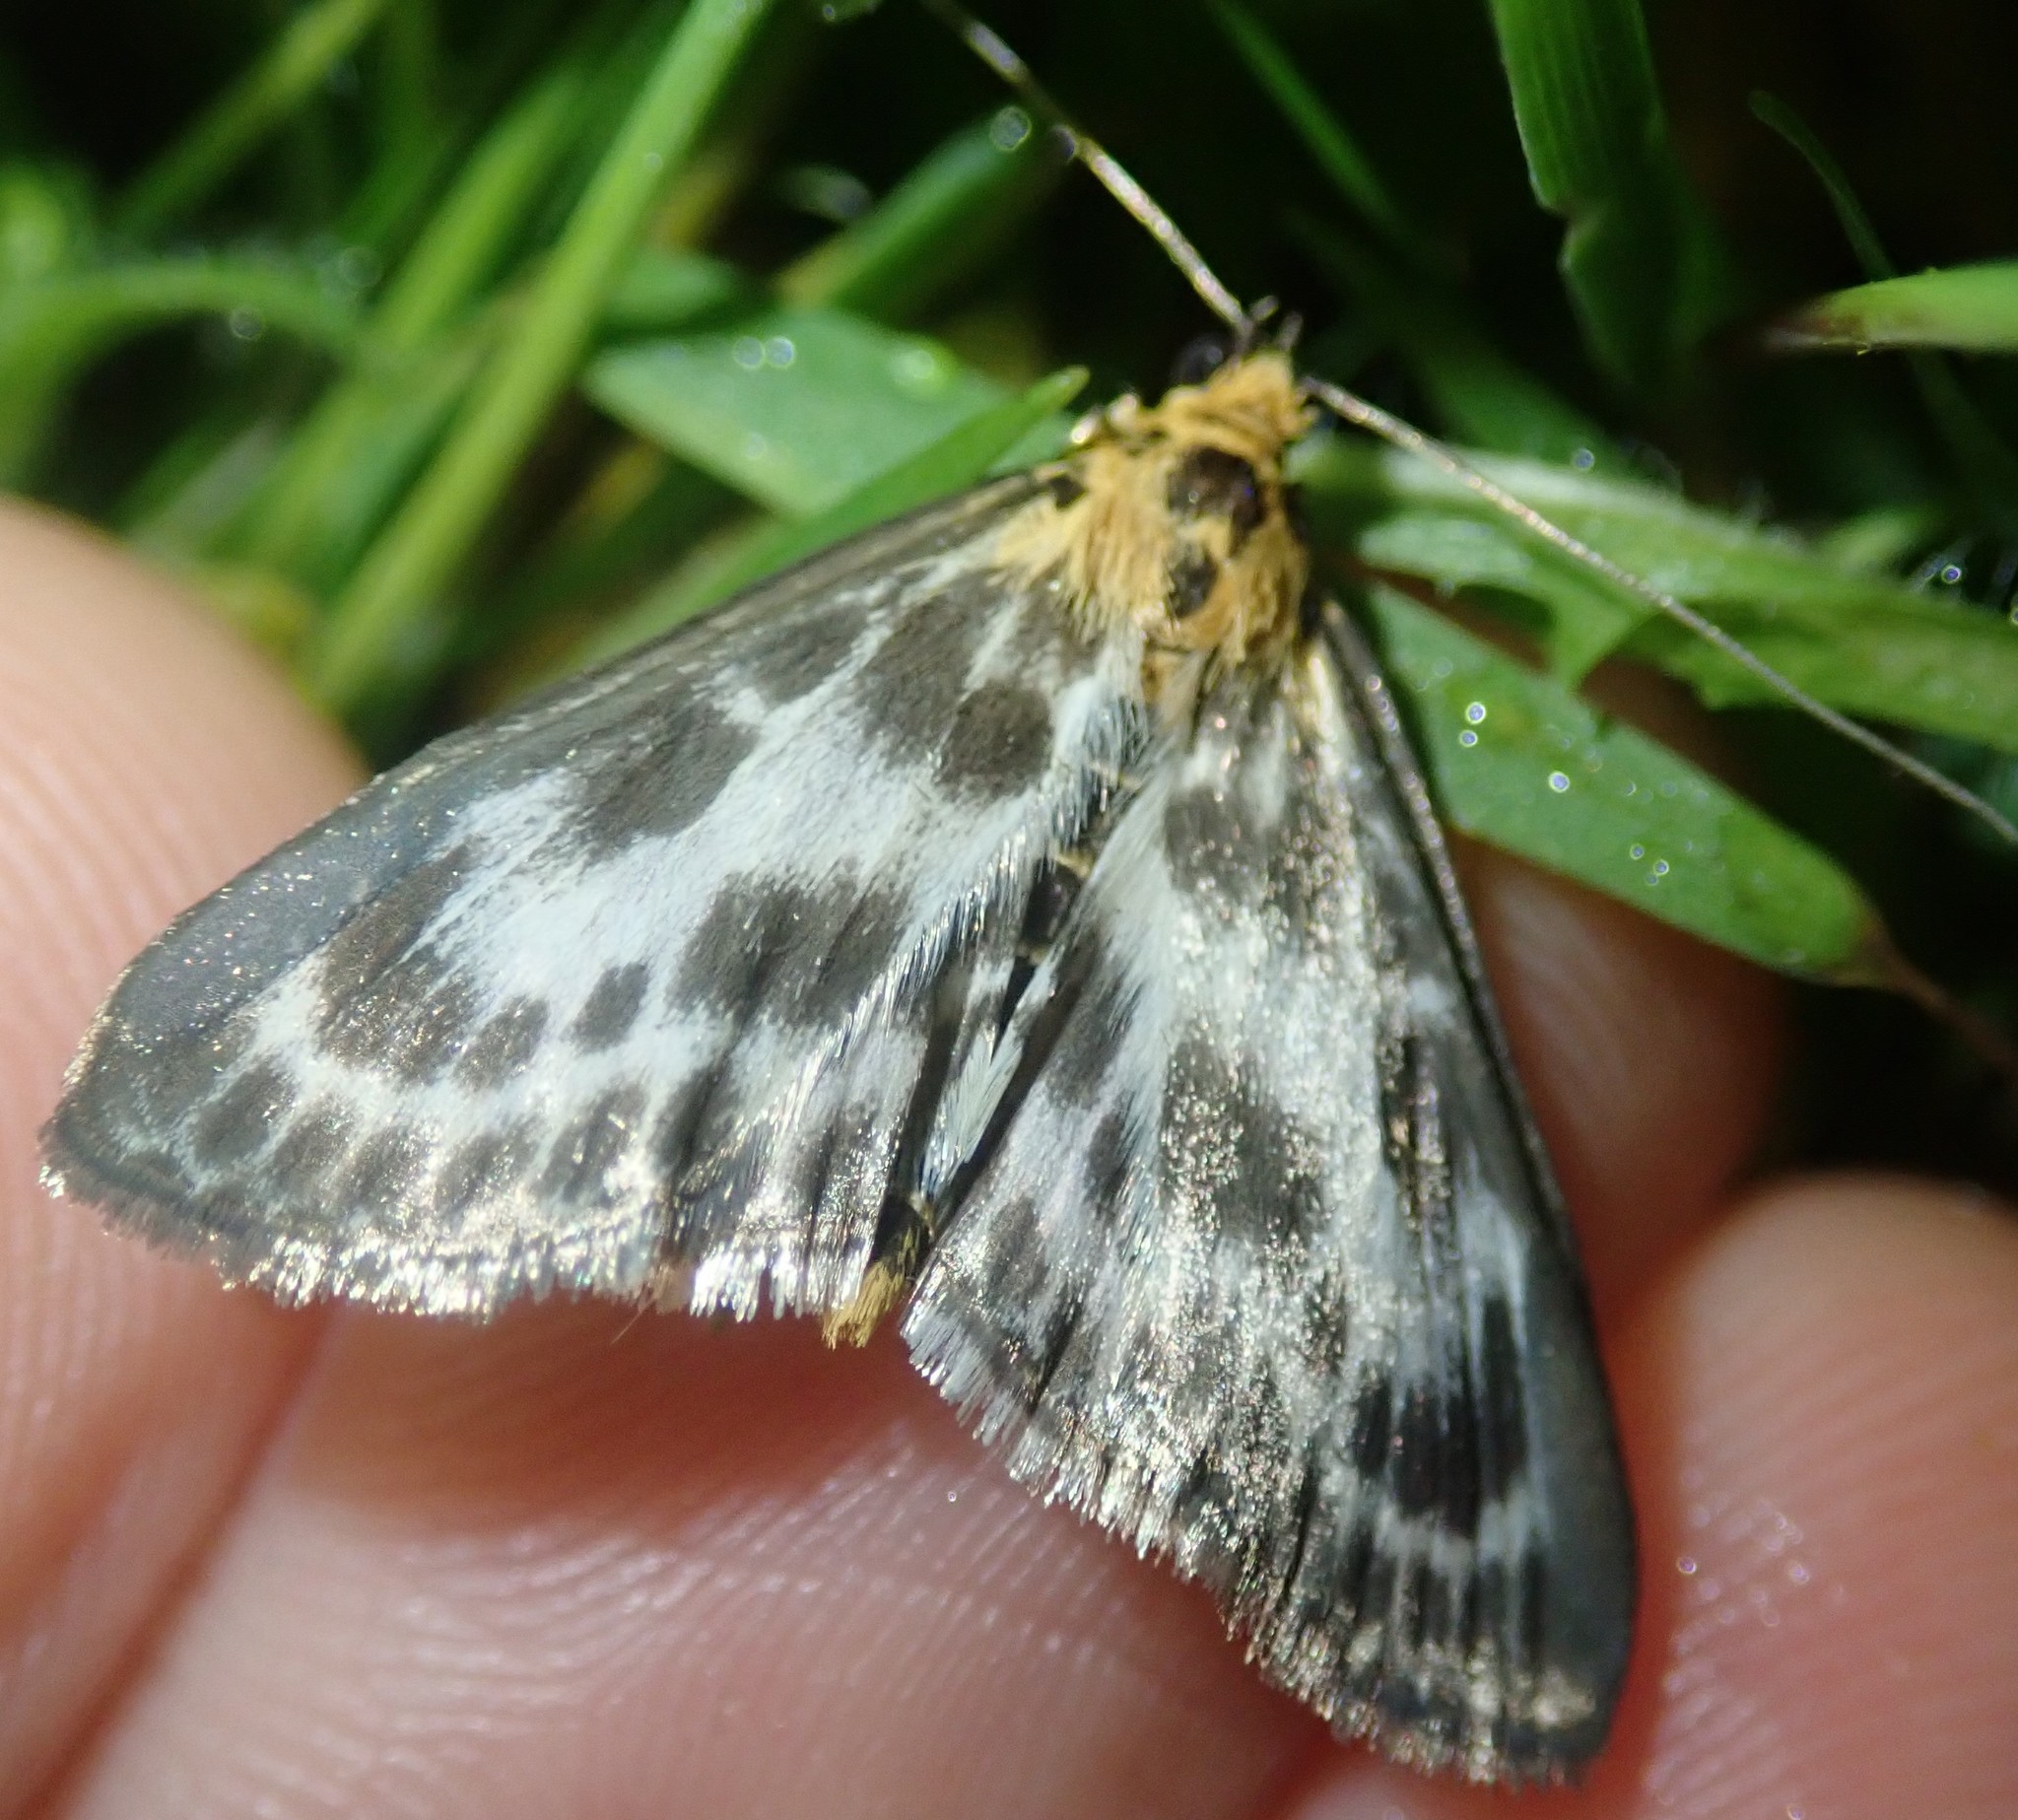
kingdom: Animalia
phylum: Arthropoda
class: Insecta
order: Lepidoptera
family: Crambidae
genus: Anania
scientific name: Anania hortulata
